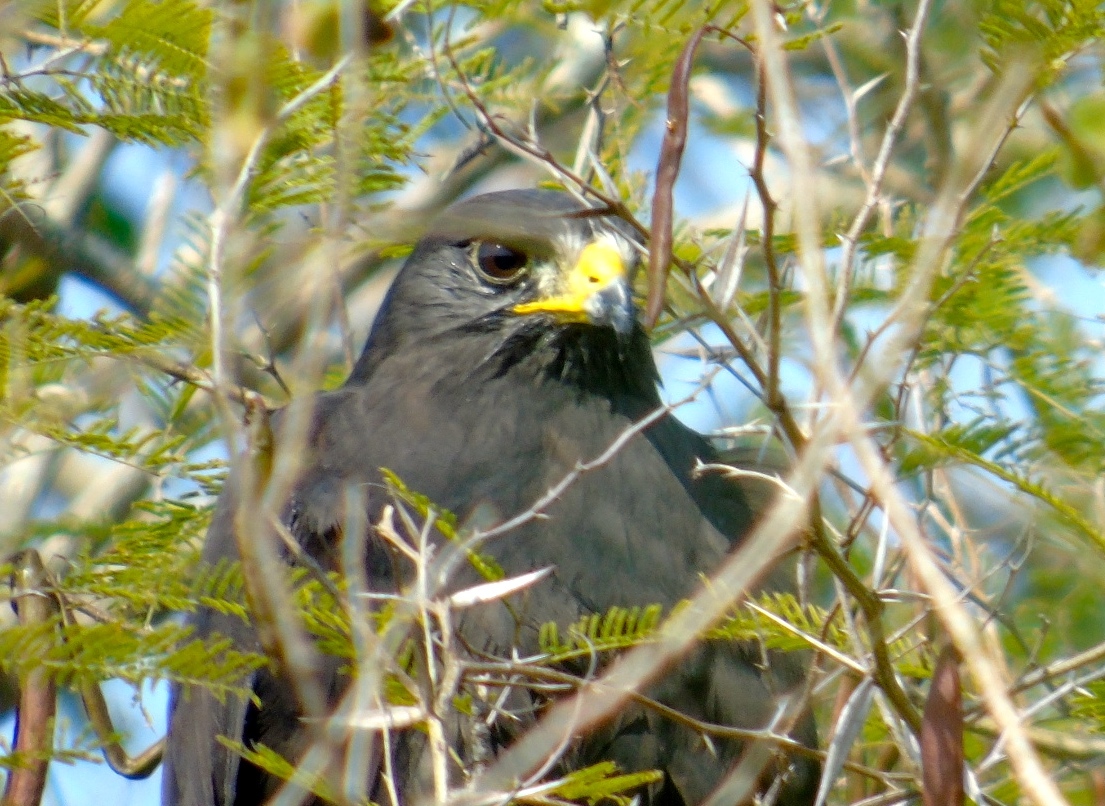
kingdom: Animalia
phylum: Chordata
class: Aves
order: Accipitriformes
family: Accipitridae
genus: Buteogallus
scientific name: Buteogallus anthracinus
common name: Common black hawk
